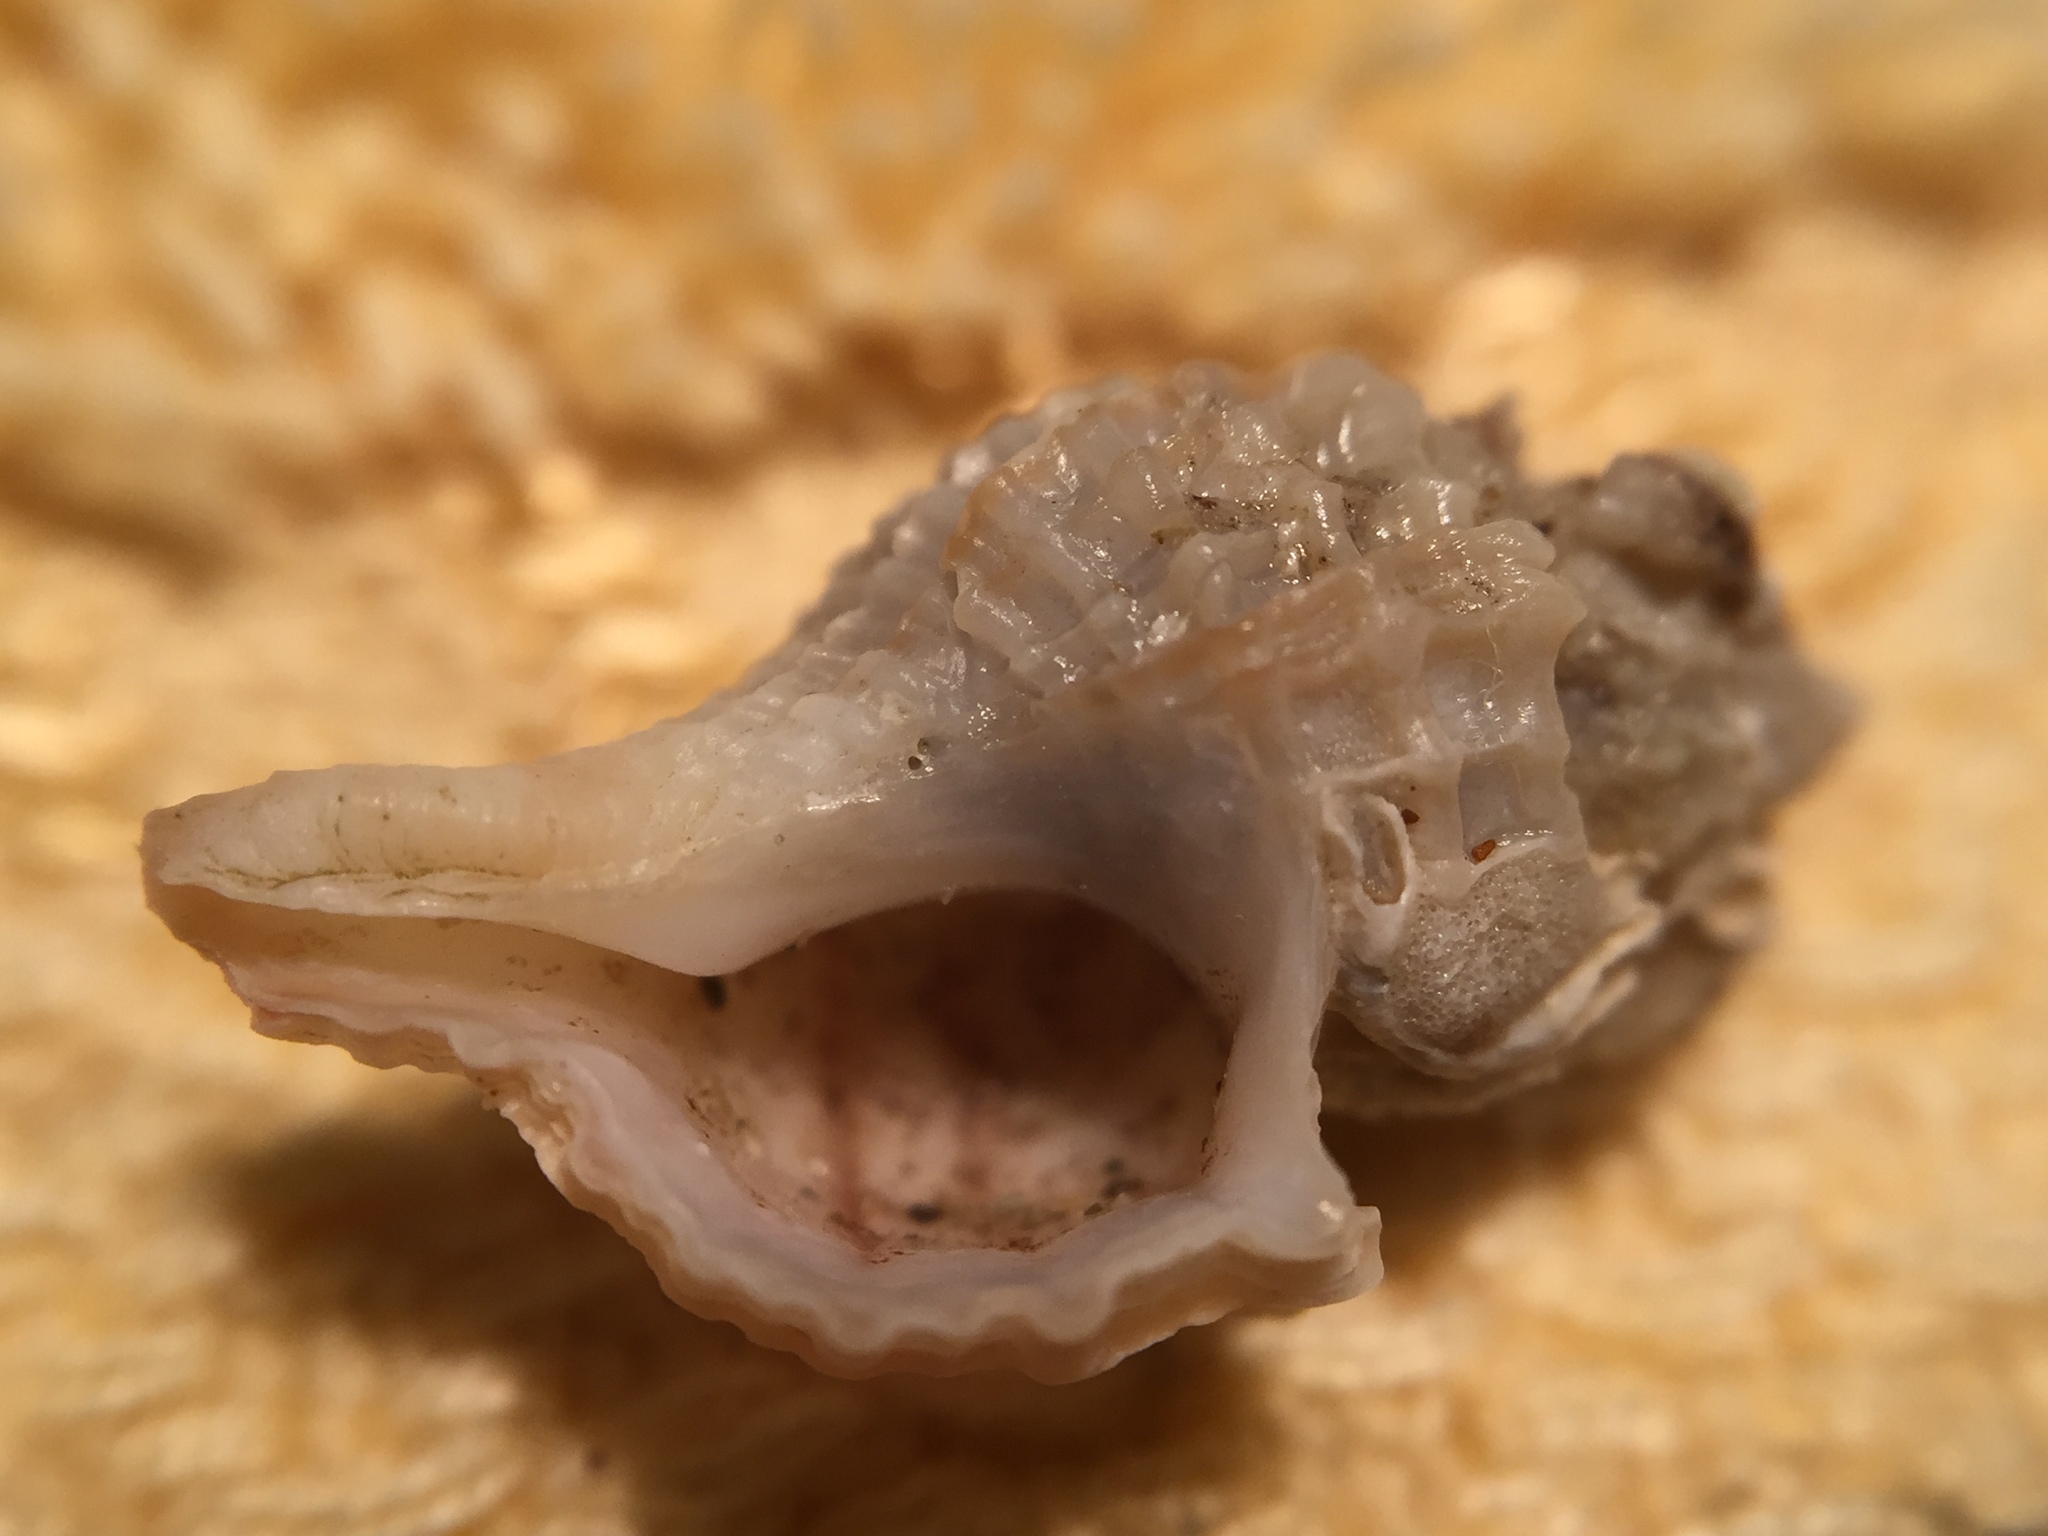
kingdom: Animalia
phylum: Mollusca
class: Gastropoda
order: Neogastropoda
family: Muricidae
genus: Zeatrophon
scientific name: Zeatrophon ambiguus
